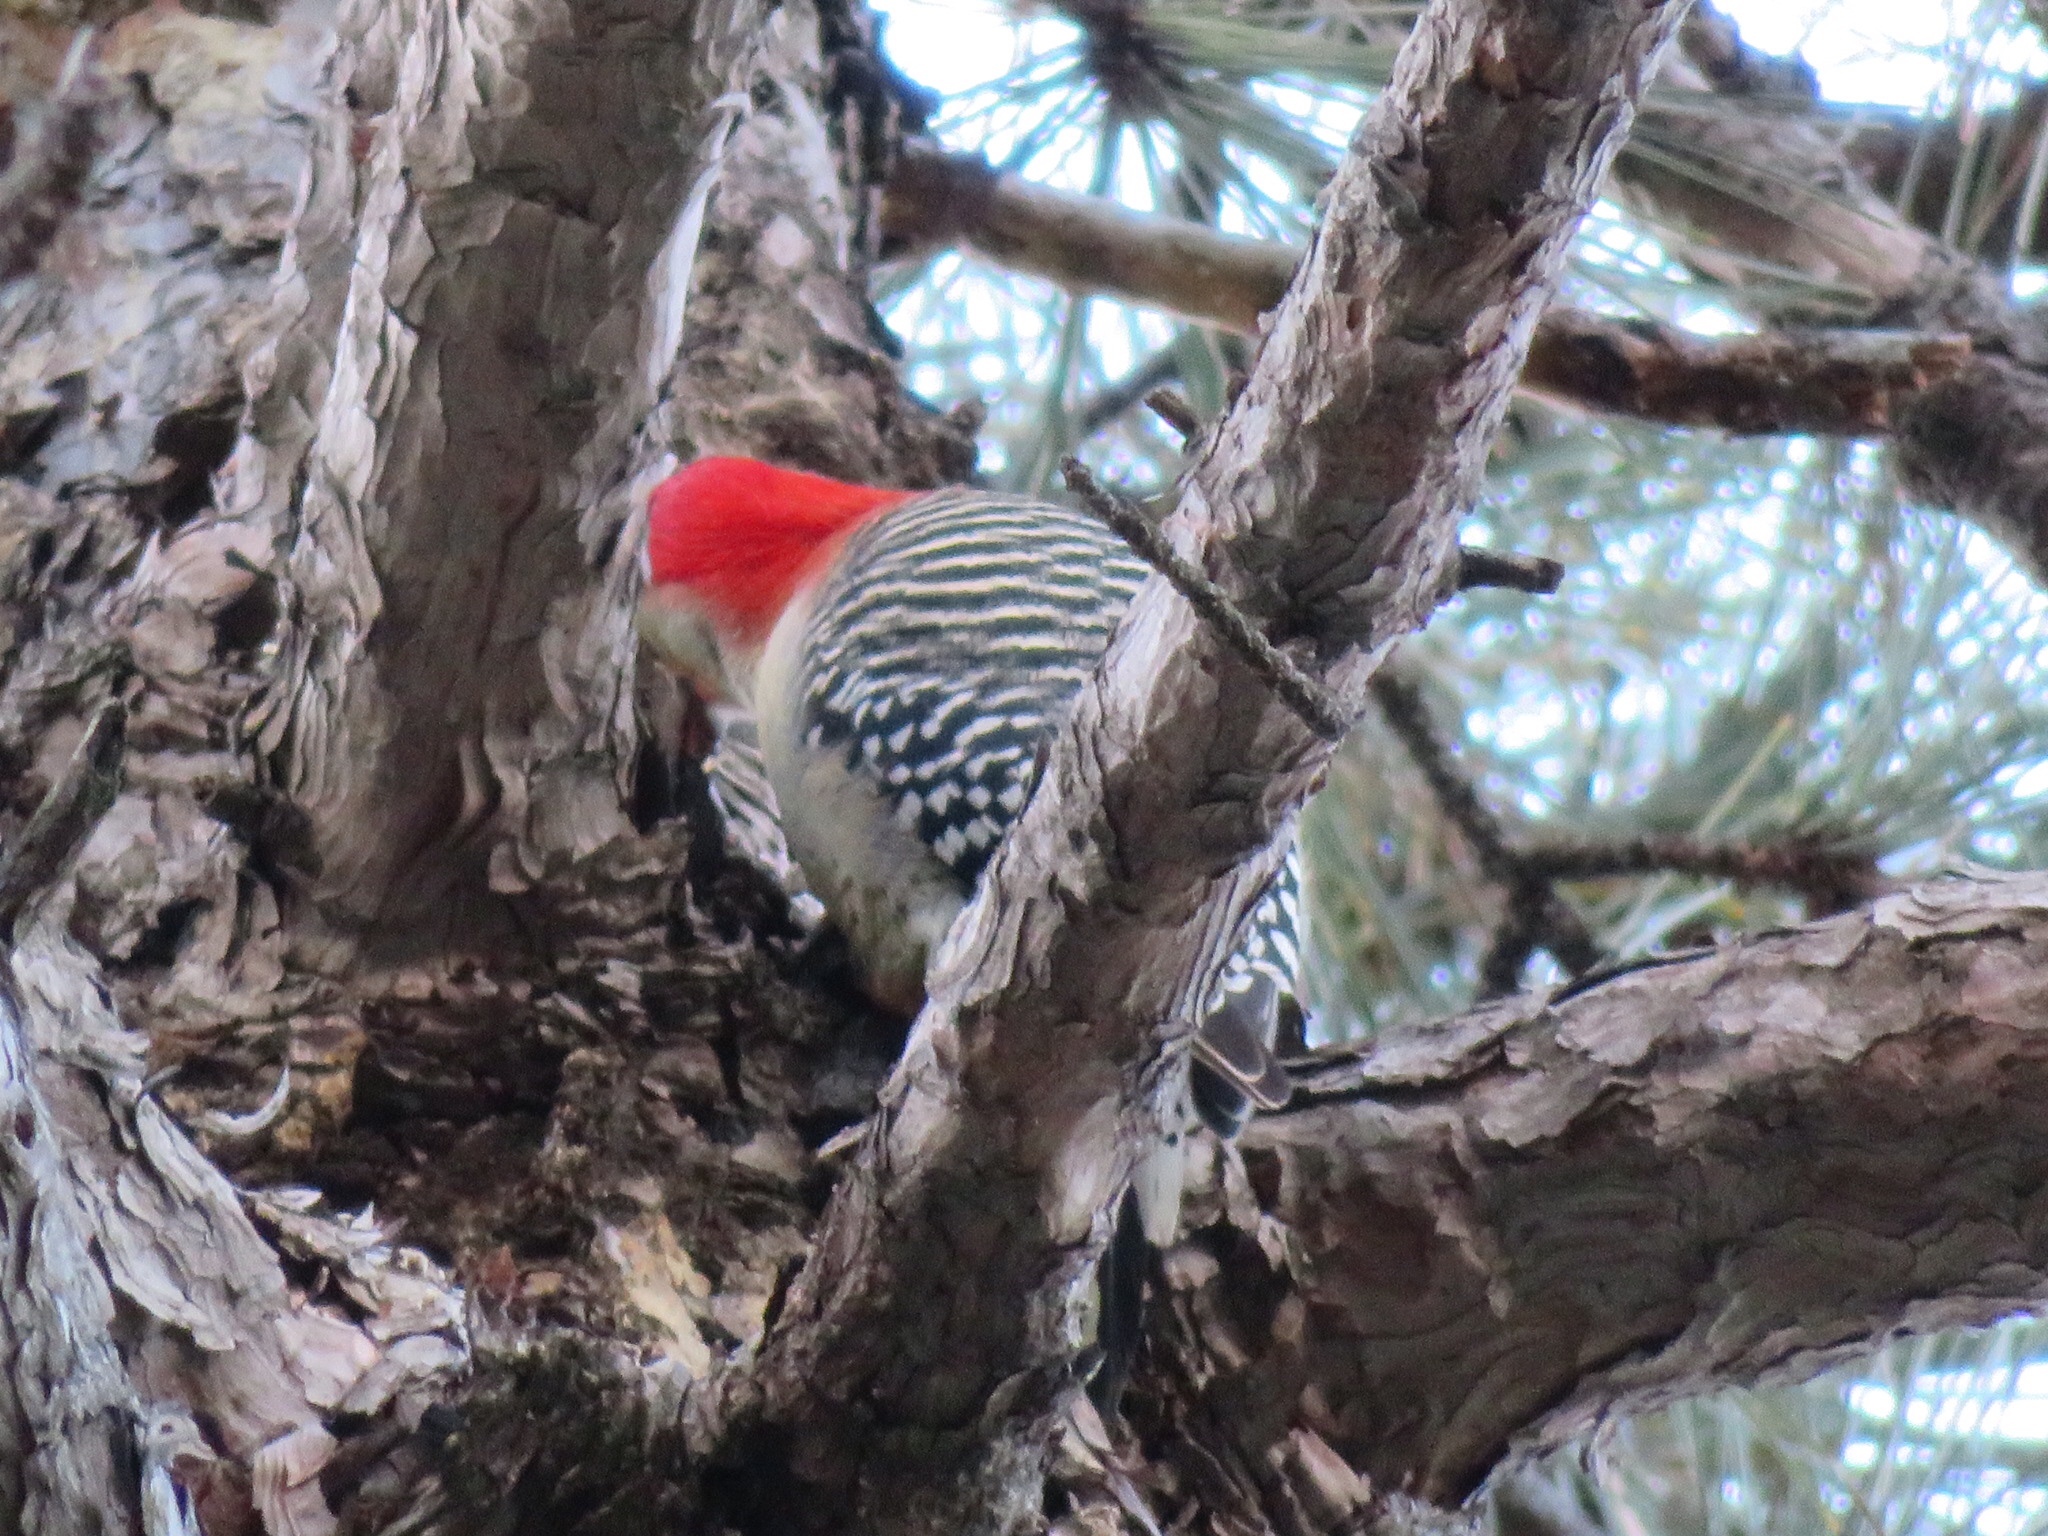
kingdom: Animalia
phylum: Chordata
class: Aves
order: Piciformes
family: Picidae
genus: Melanerpes
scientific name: Melanerpes carolinus
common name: Red-bellied woodpecker
